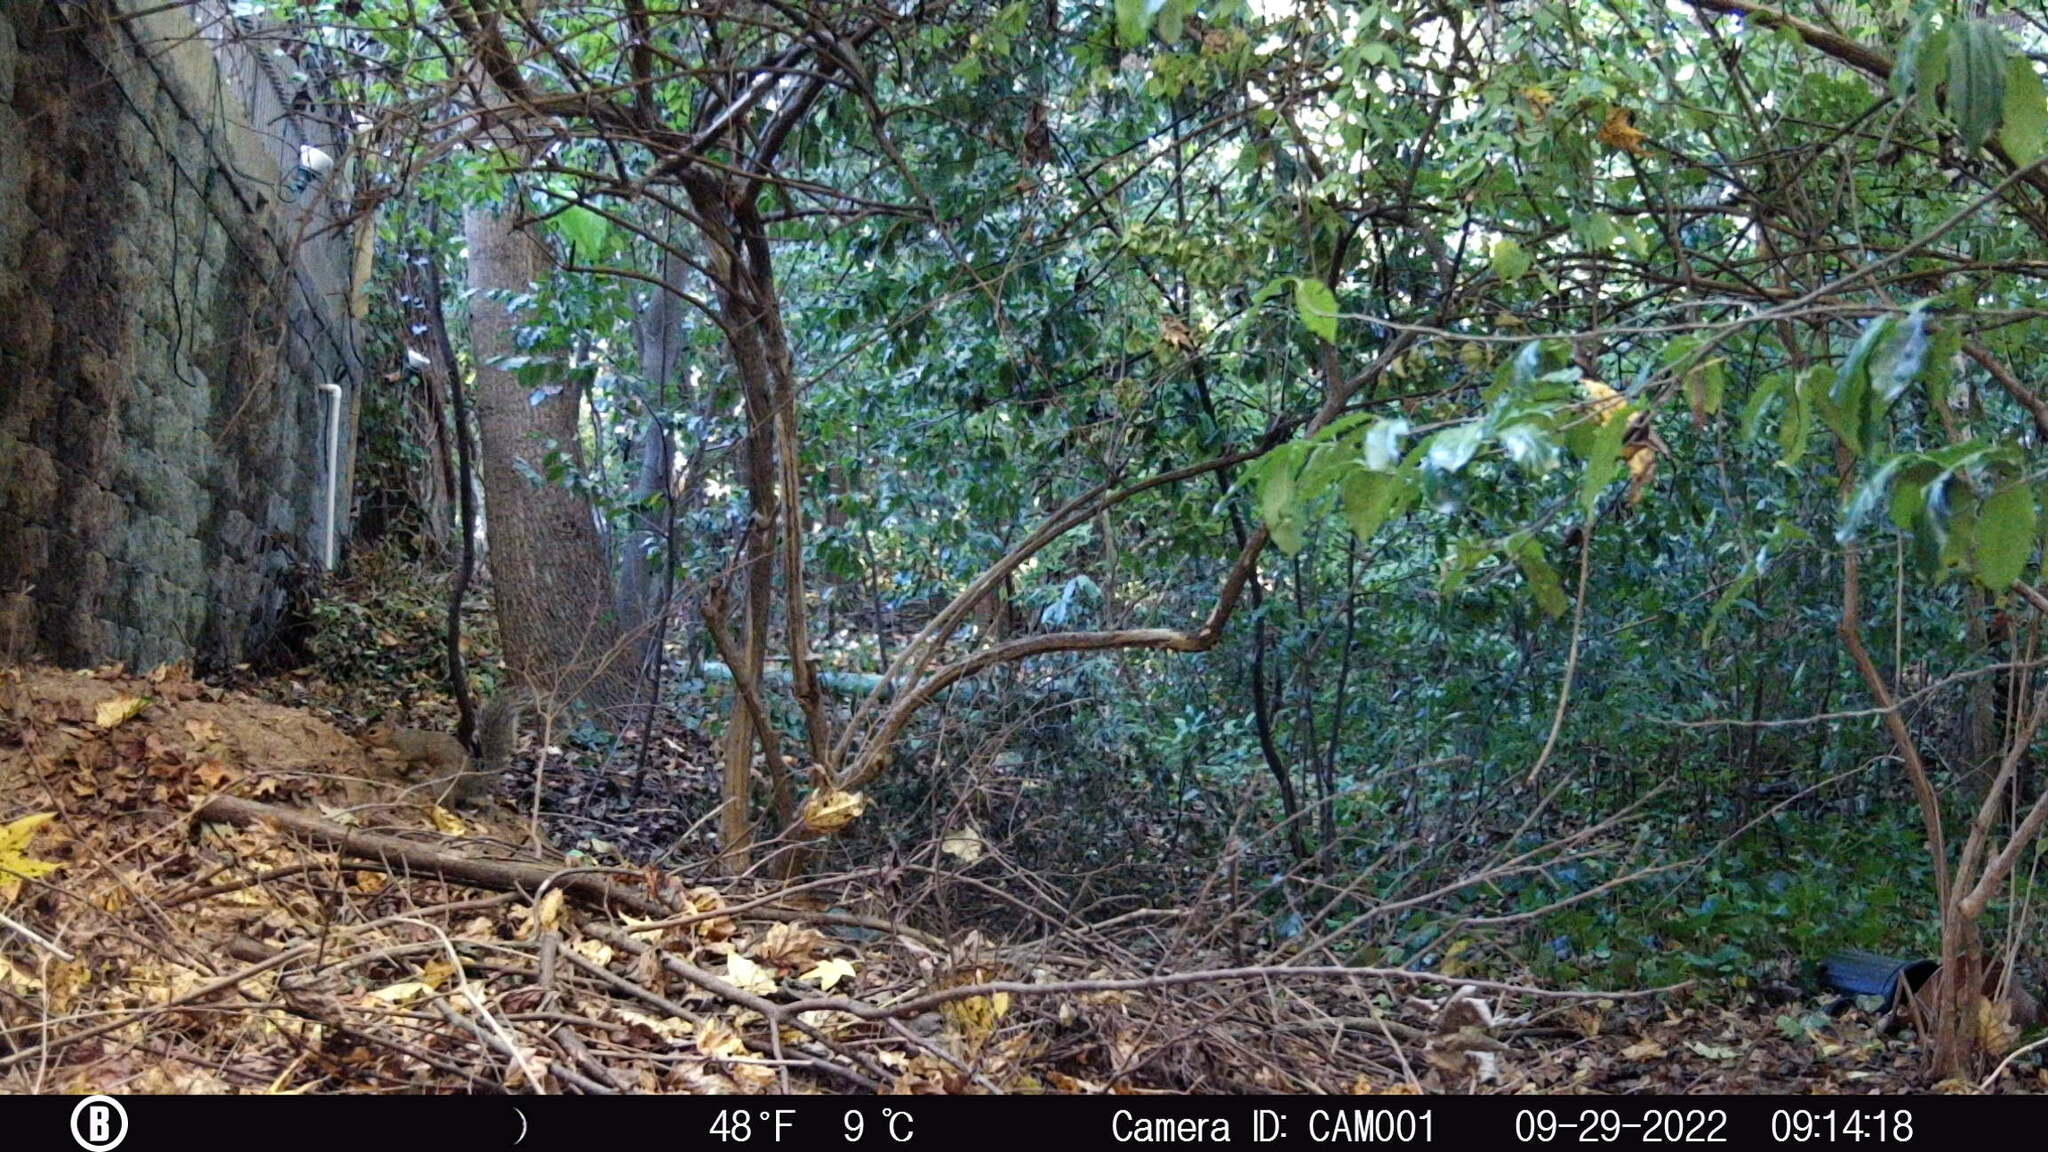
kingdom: Animalia
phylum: Chordata
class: Mammalia
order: Rodentia
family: Sciuridae
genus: Sciurus
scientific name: Sciurus carolinensis
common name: Eastern gray squirrel
